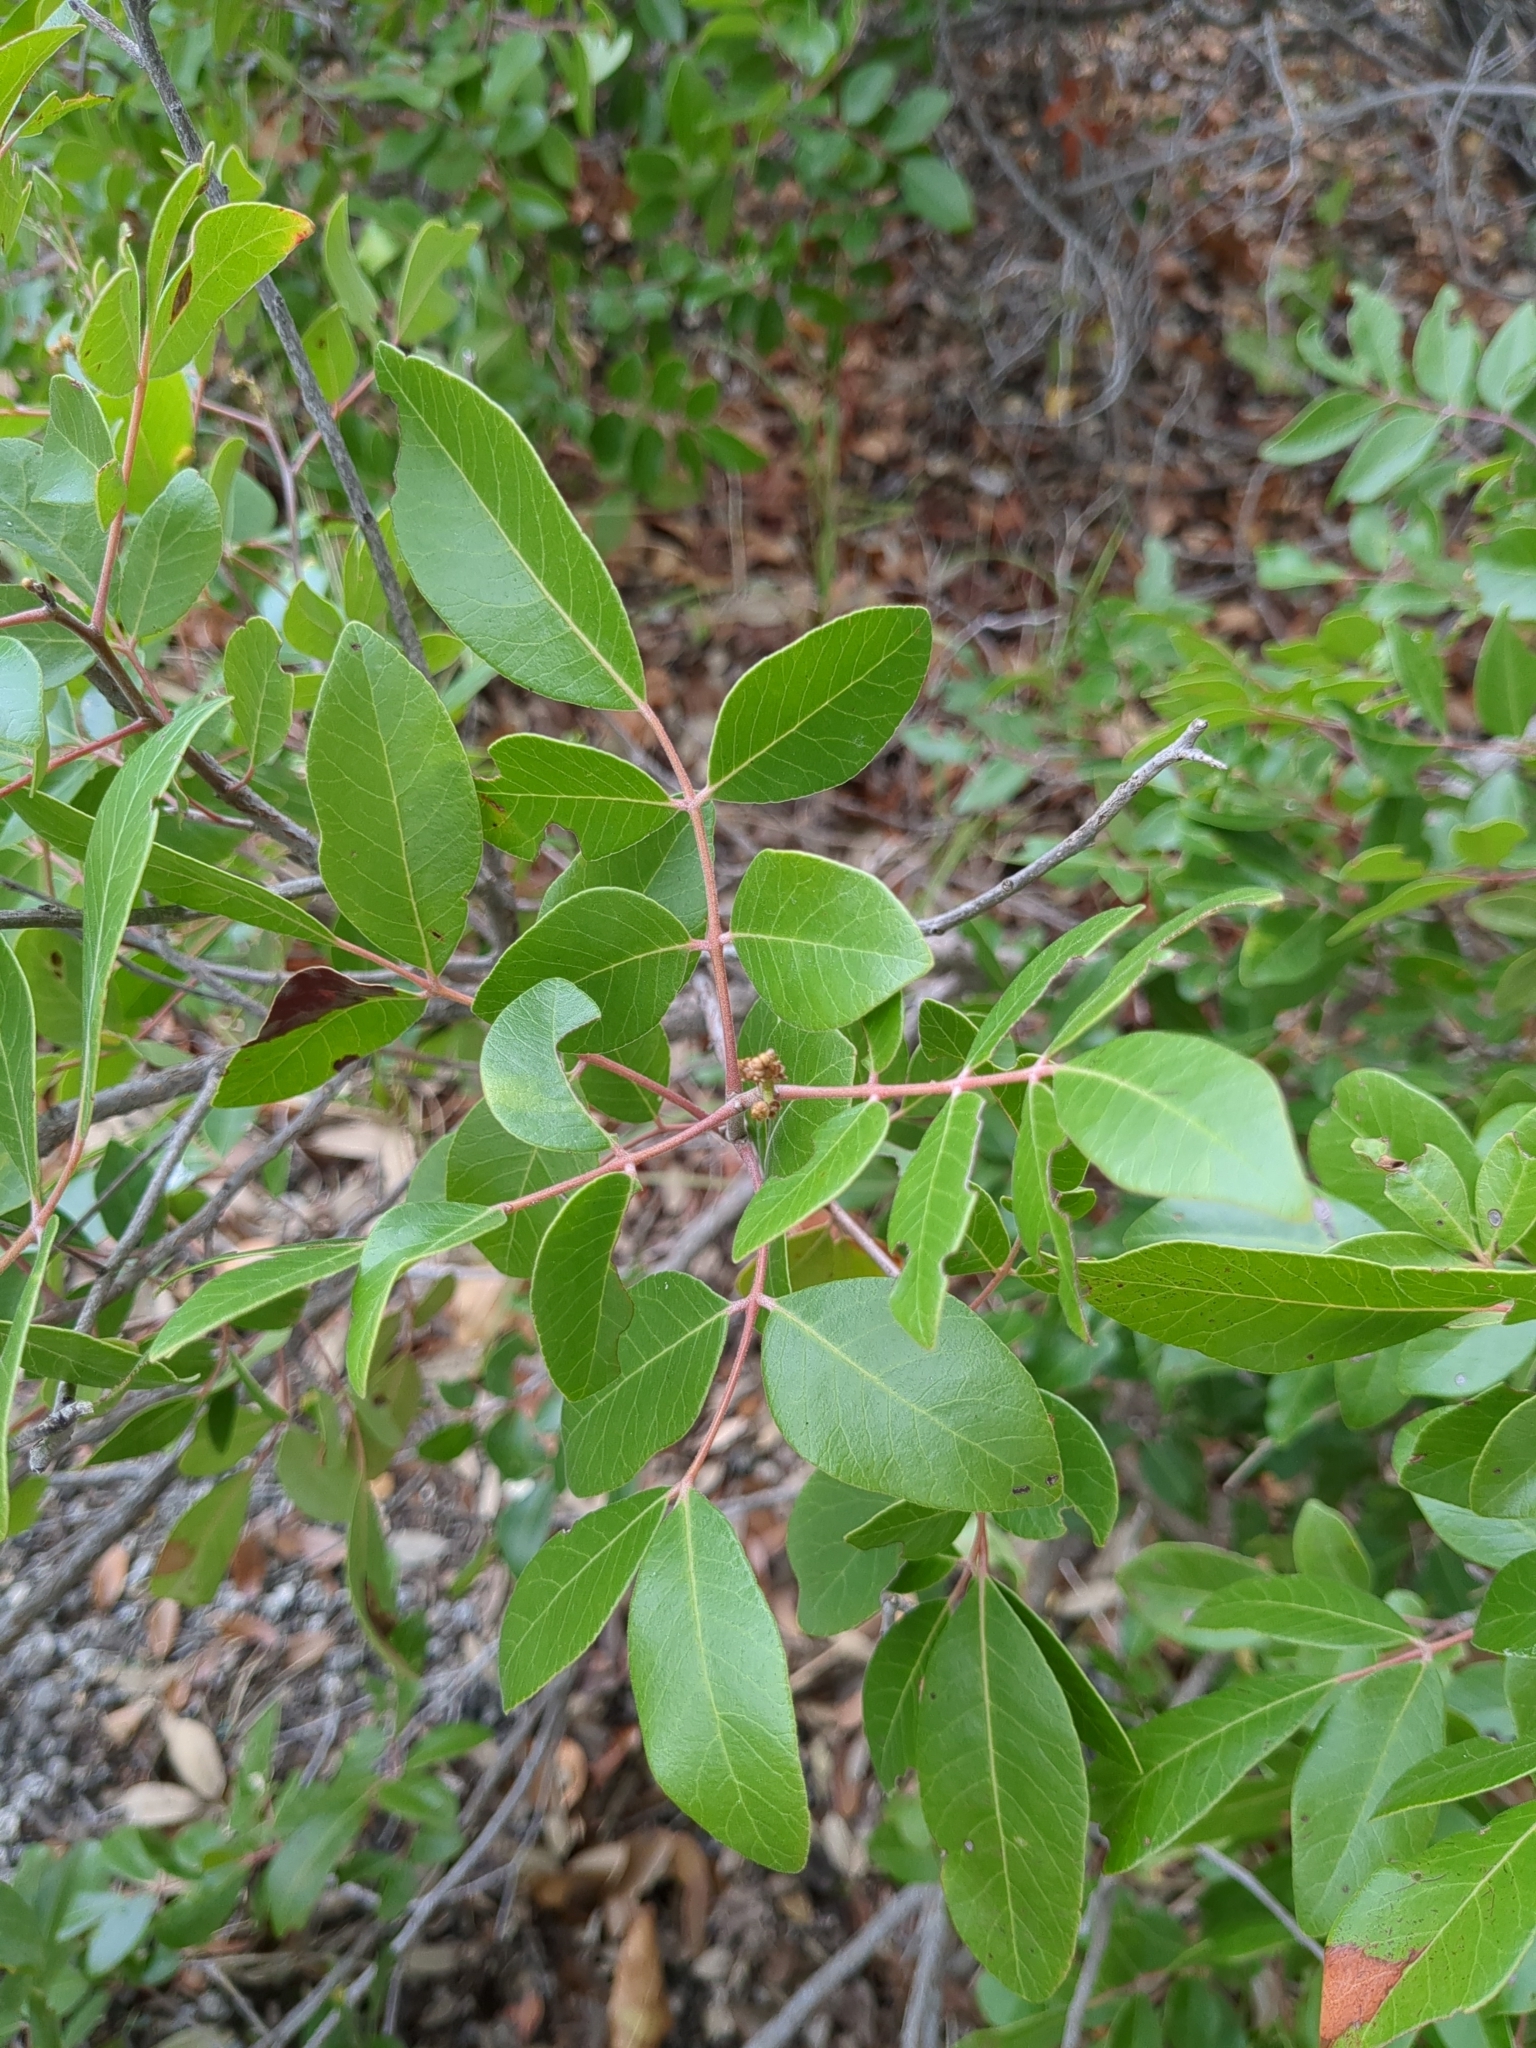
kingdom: Plantae
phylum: Tracheophyta
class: Magnoliopsida
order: Sapindales
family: Anacardiaceae
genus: Rhus
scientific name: Rhus virens
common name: Evergreen sumac
